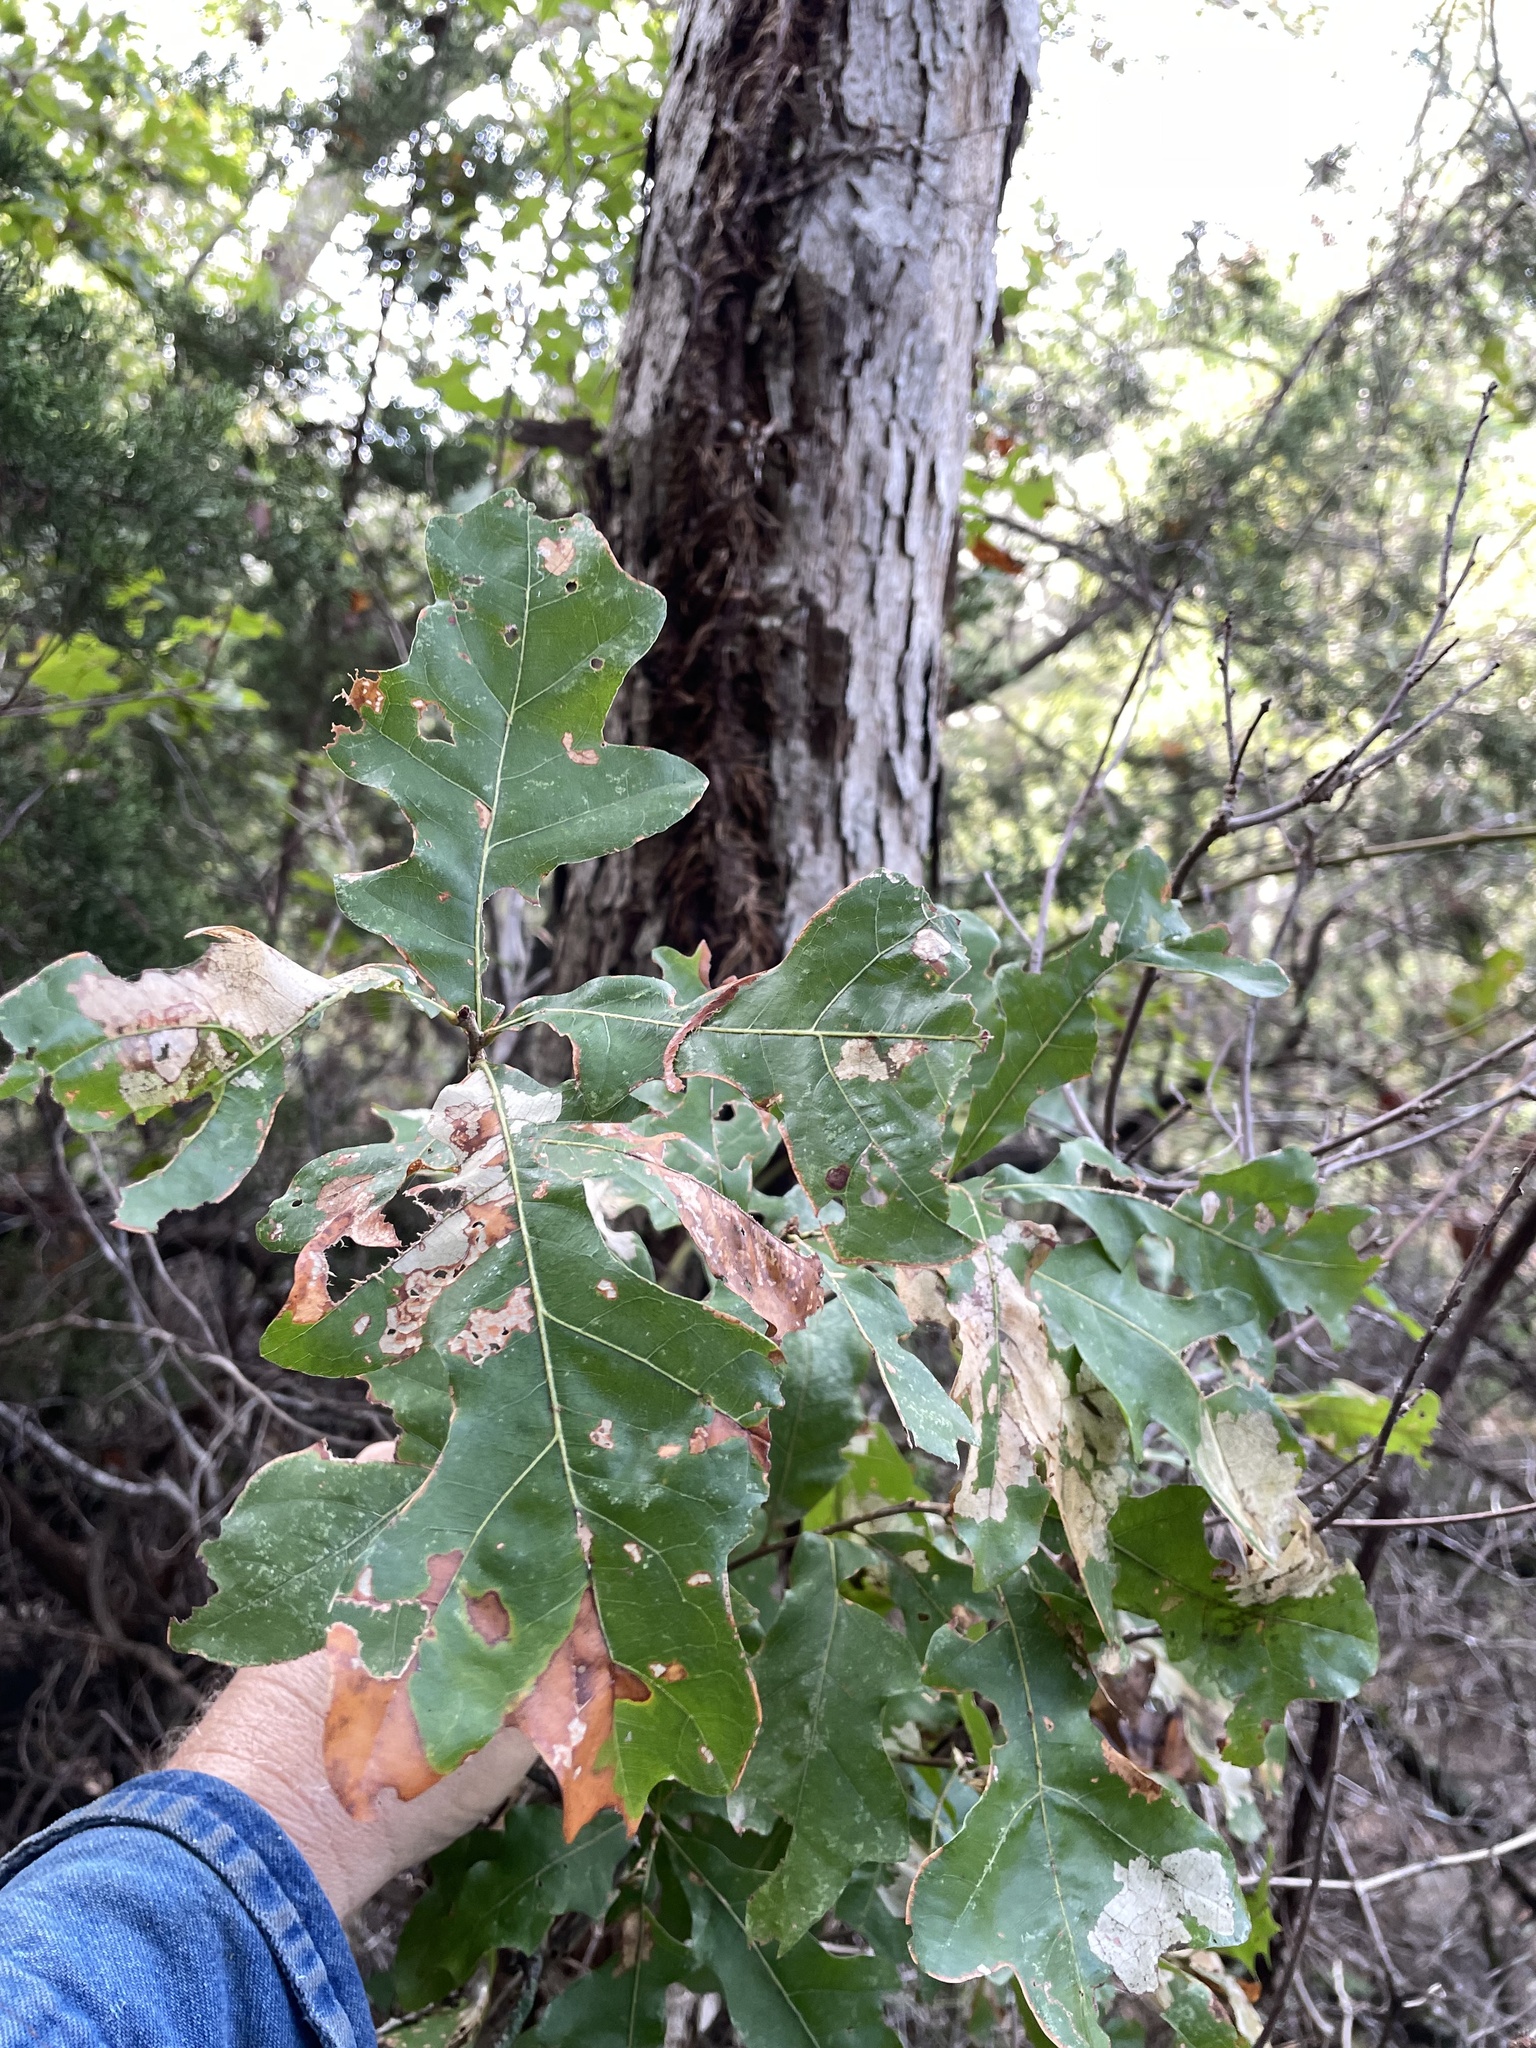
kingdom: Plantae
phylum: Tracheophyta
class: Magnoliopsida
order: Fagales
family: Fagaceae
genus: Quercus
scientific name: Quercus sinuata
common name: Durand oak
